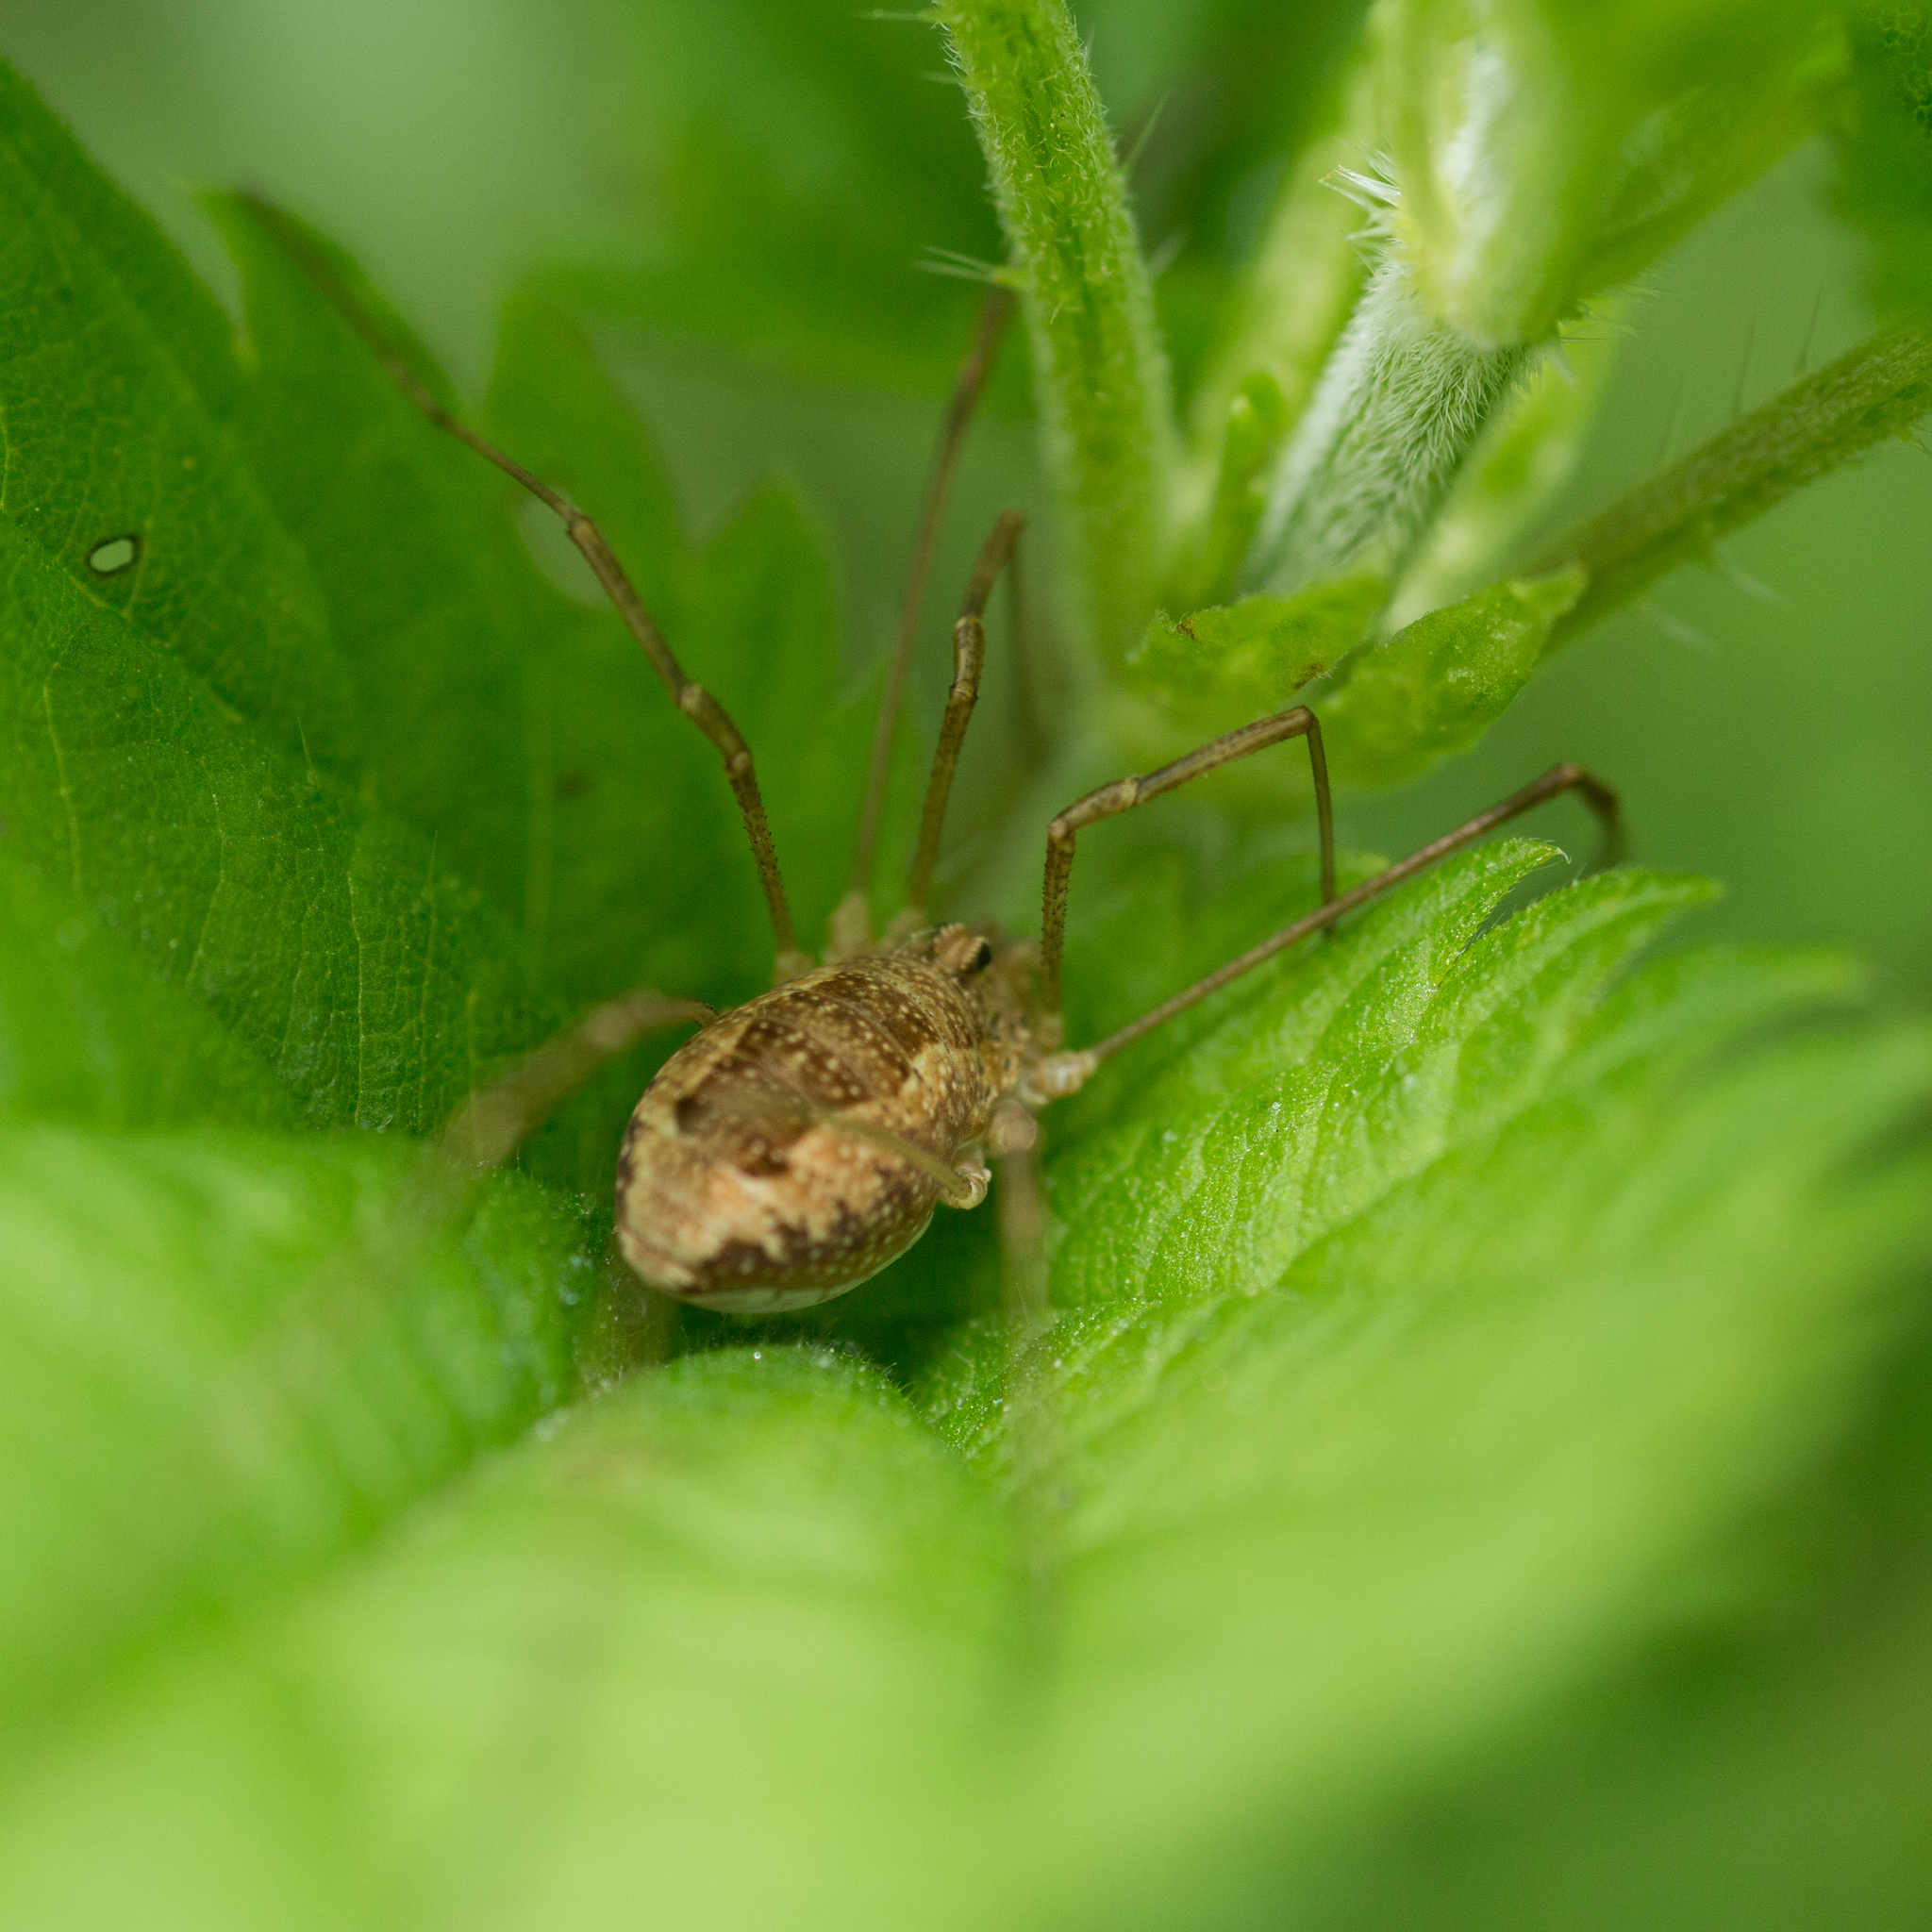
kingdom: Animalia
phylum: Arthropoda
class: Arachnida
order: Opiliones
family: Phalangiidae
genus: Rilaena
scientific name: Rilaena triangularis
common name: Spring harvestman
